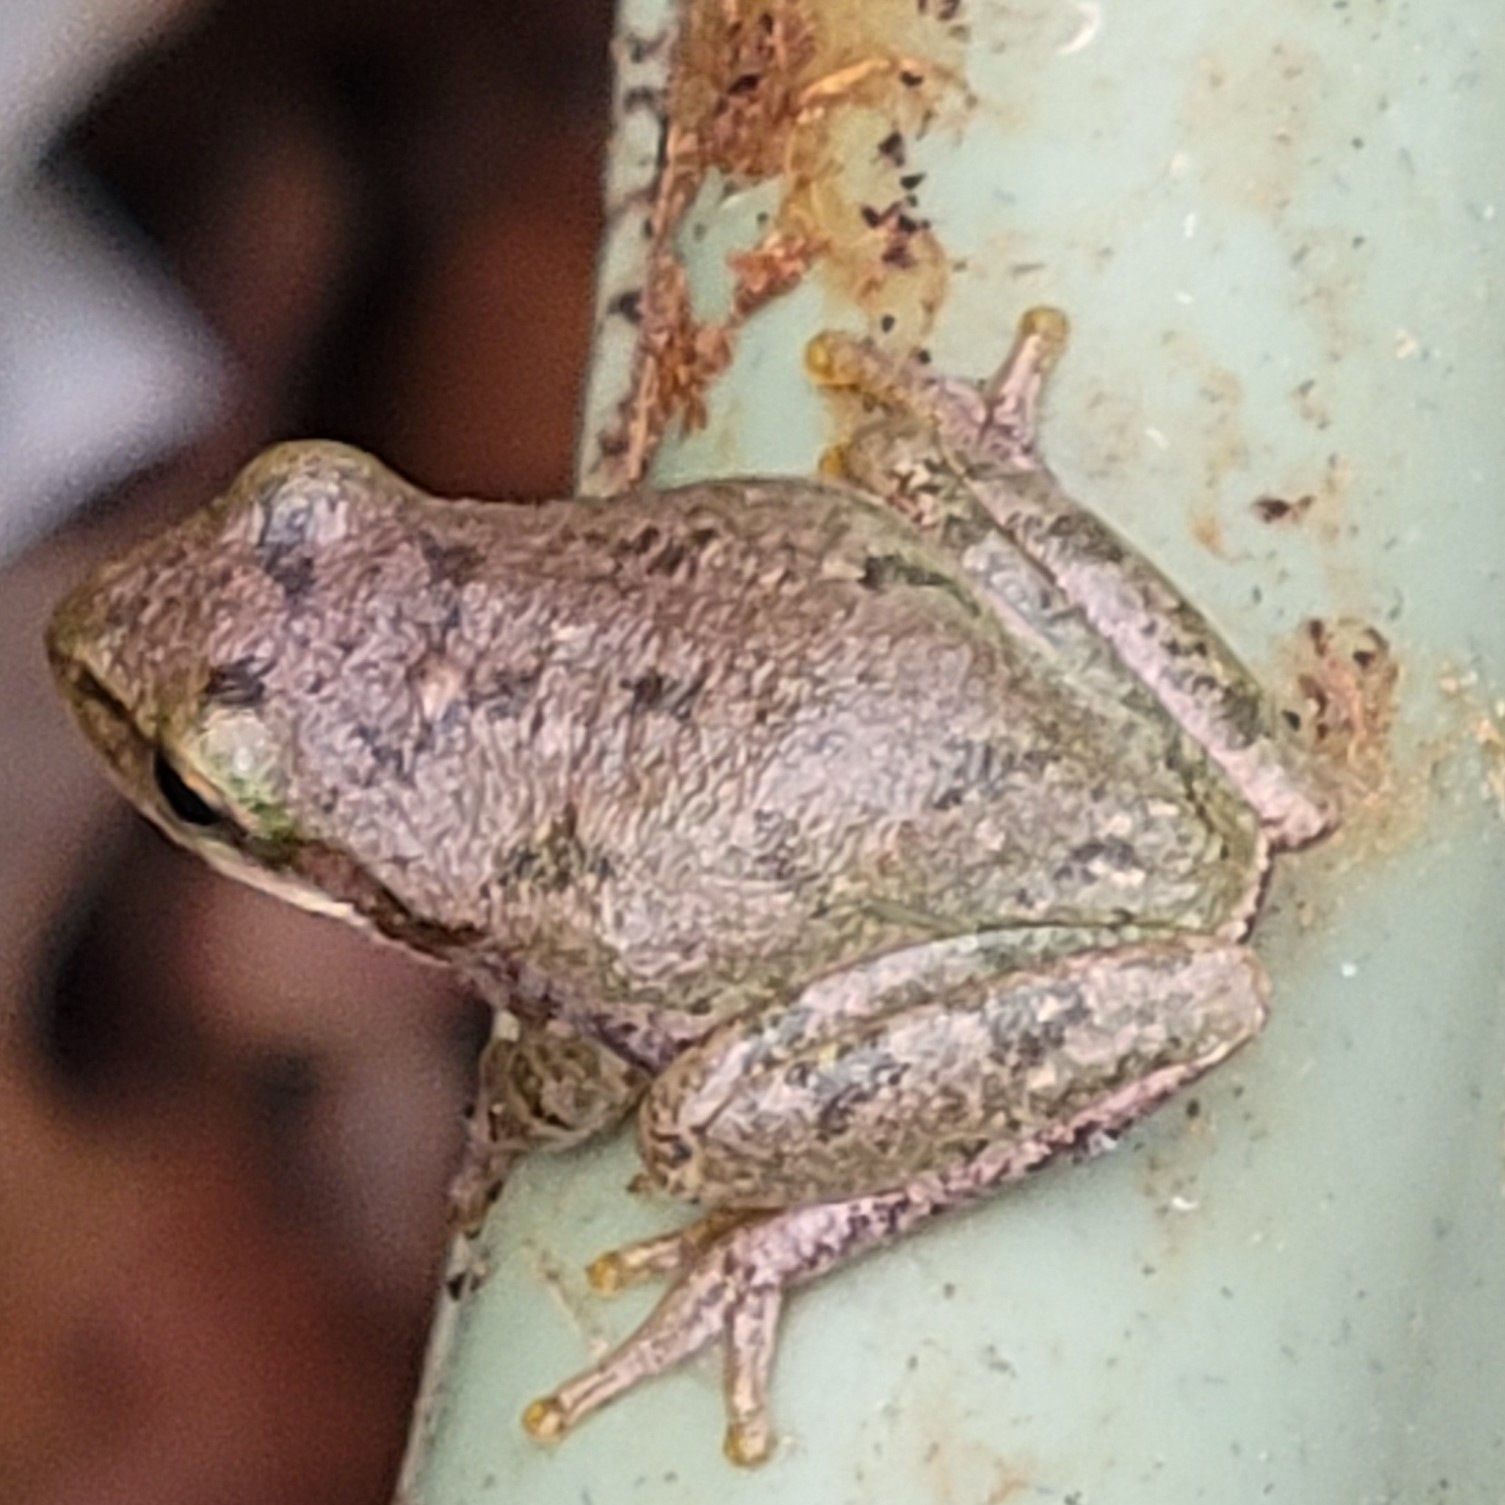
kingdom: Animalia
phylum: Chordata
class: Amphibia
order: Anura
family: Hylidae
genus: Dryophytes
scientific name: Dryophytes squirellus
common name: Squirrel treefrog
